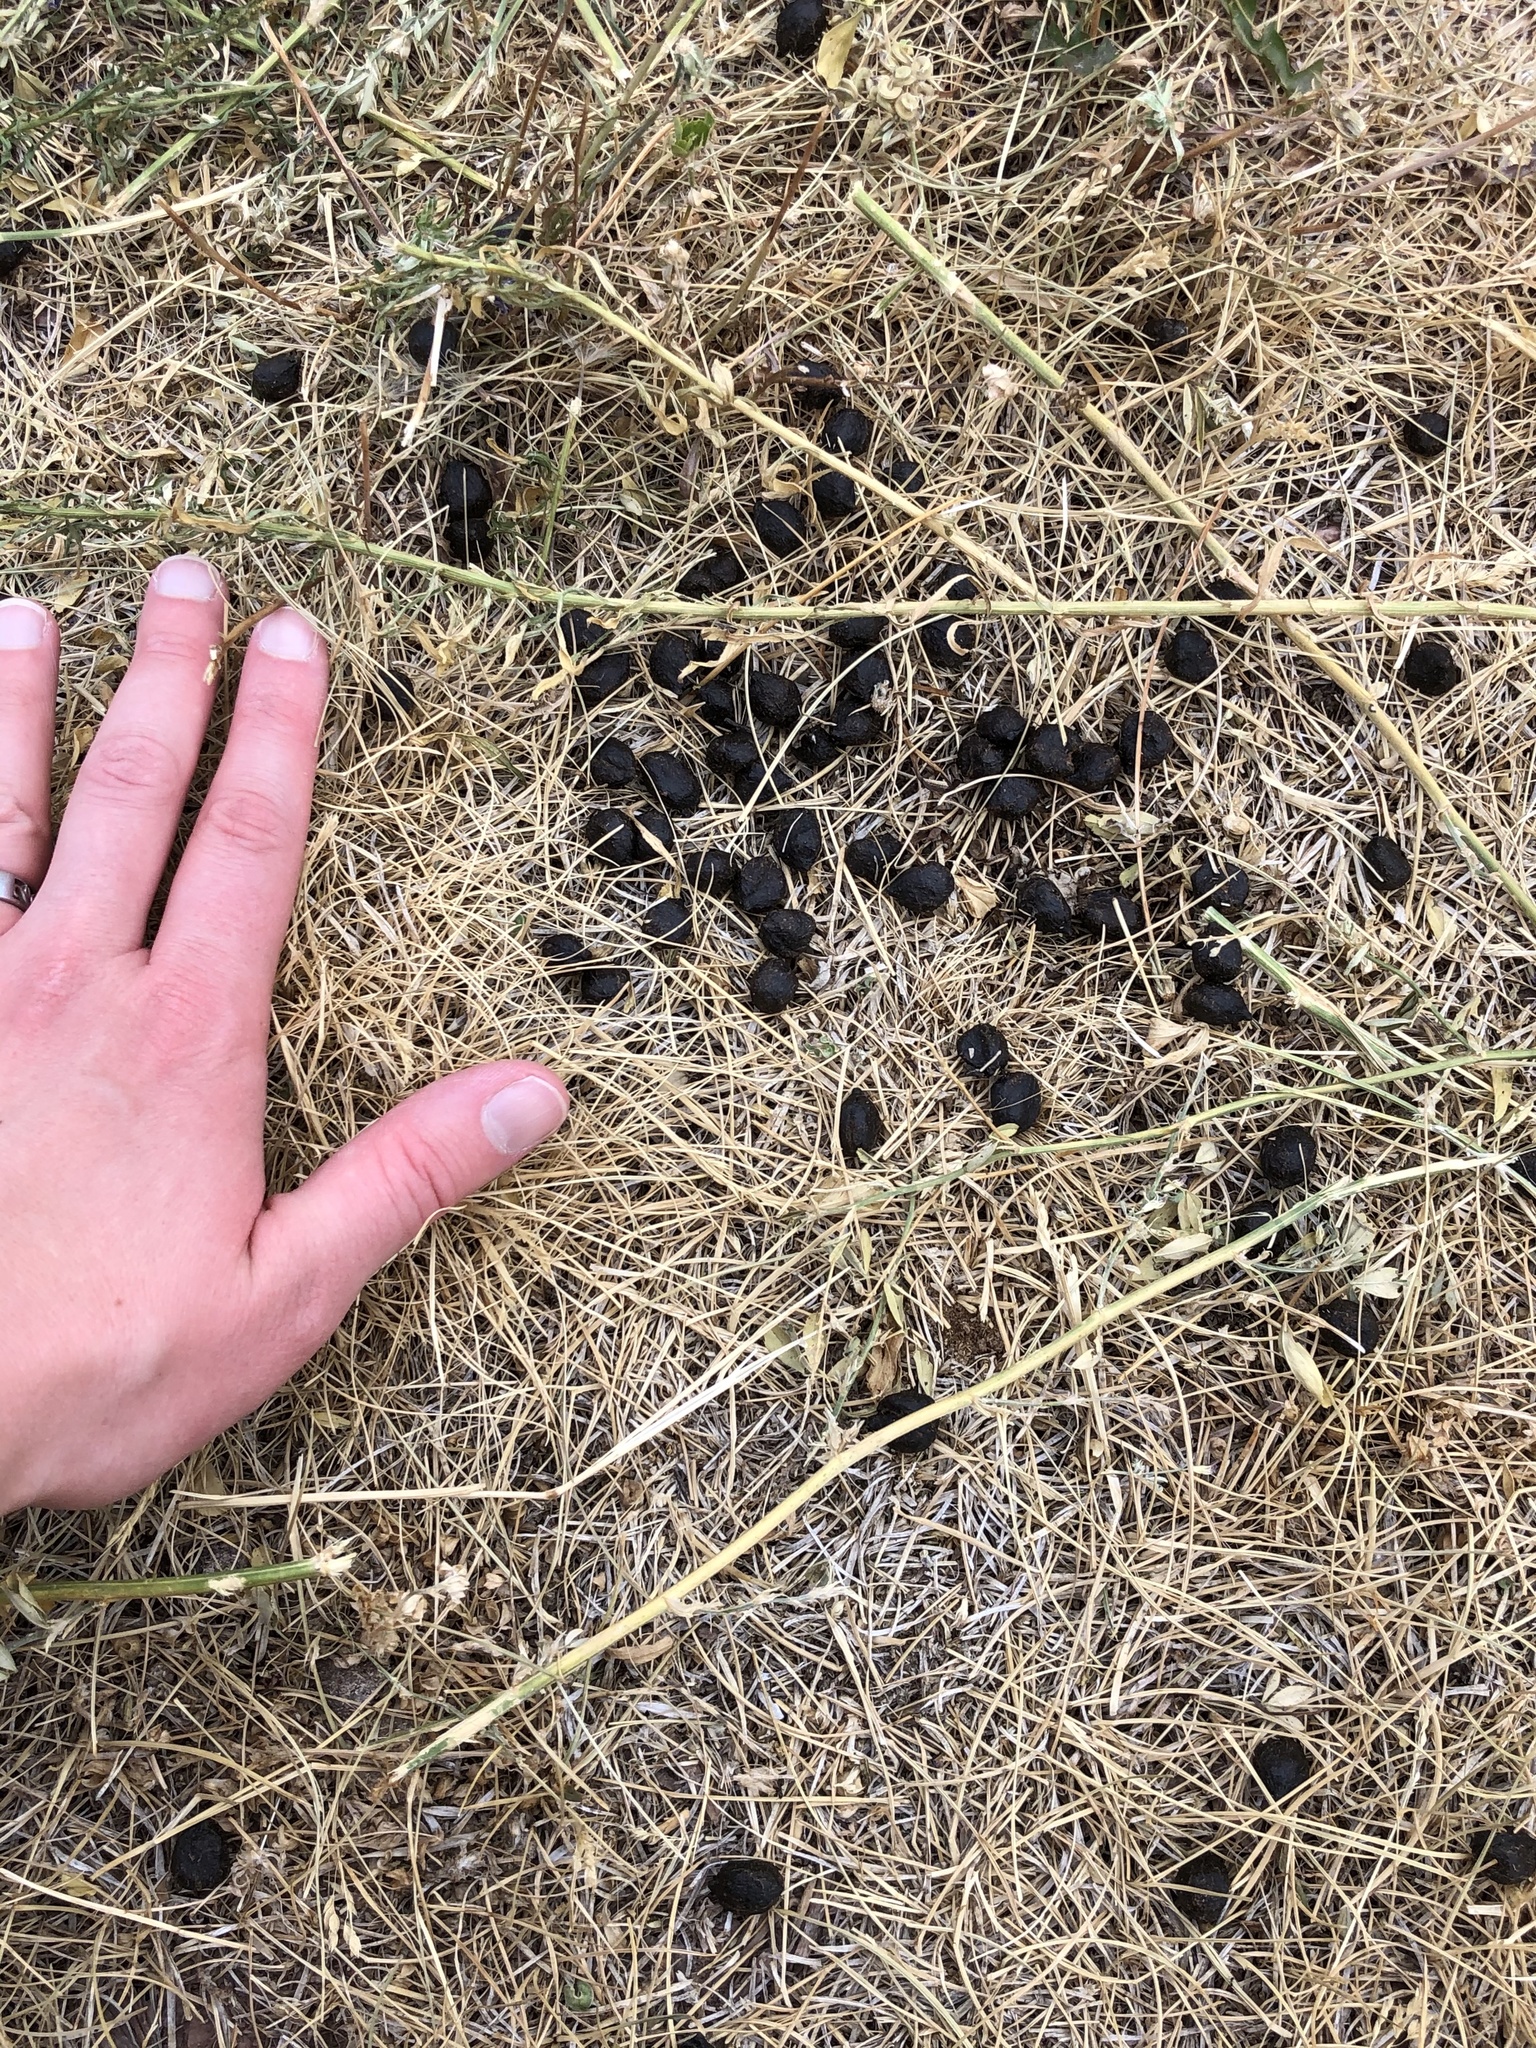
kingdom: Animalia
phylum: Chordata
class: Mammalia
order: Artiodactyla
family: Cervidae
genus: Odocoileus
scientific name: Odocoileus hemionus
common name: Mule deer
